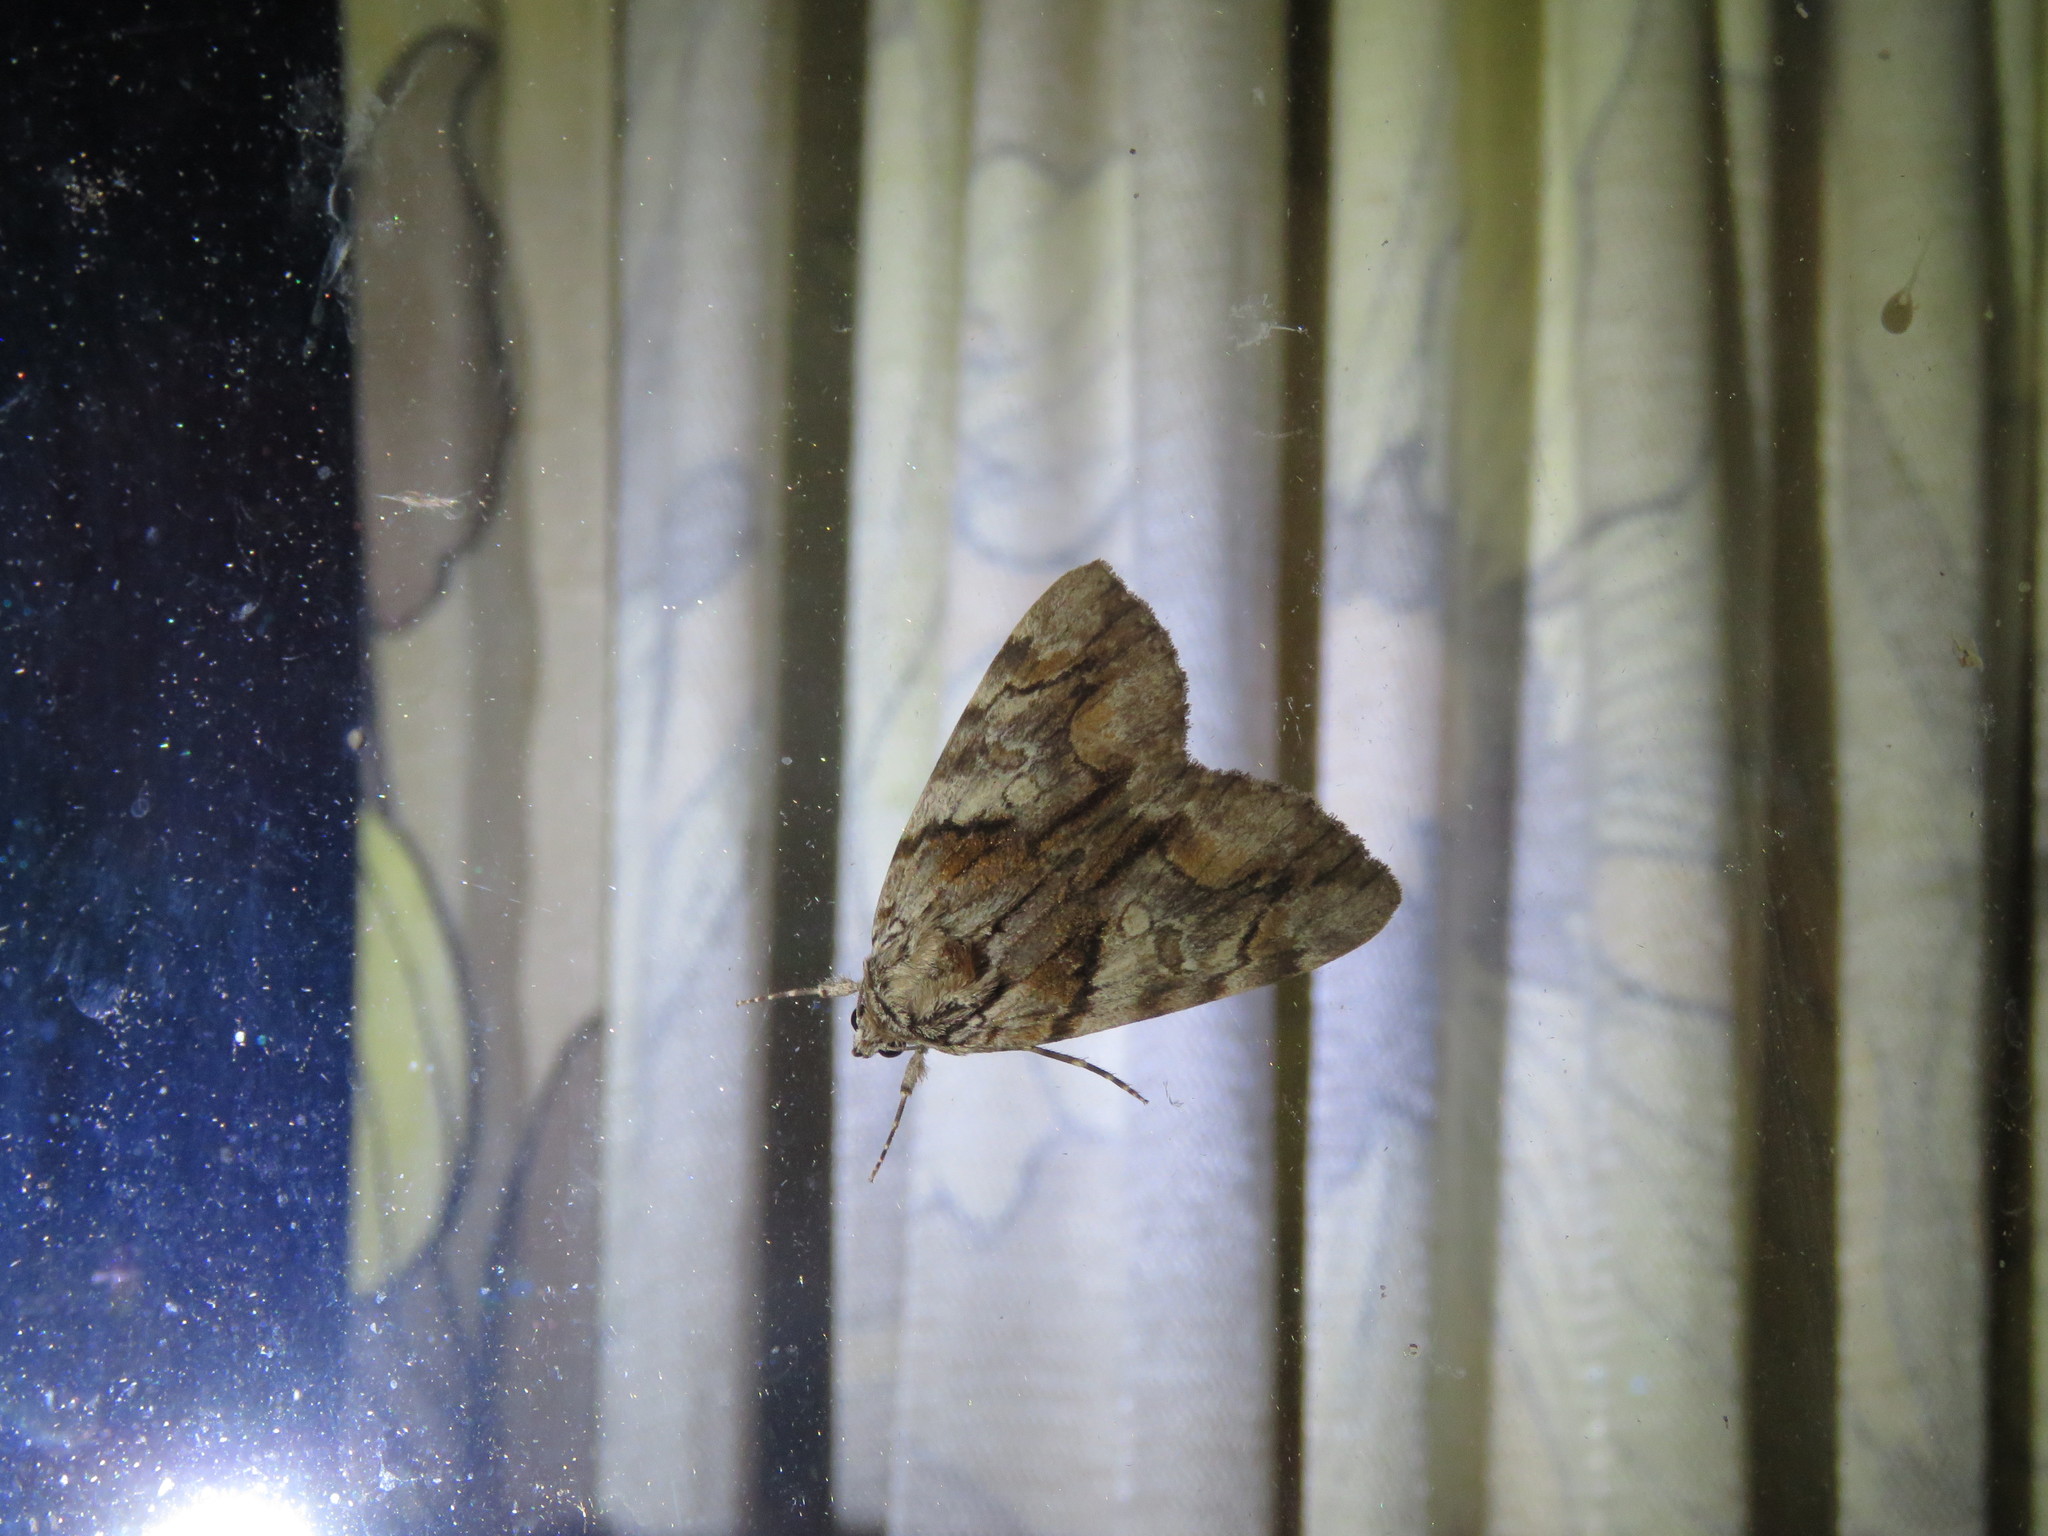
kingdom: Animalia
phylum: Arthropoda
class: Insecta
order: Lepidoptera
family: Erebidae
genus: Catocala
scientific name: Catocala blandula
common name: Charming underwing
